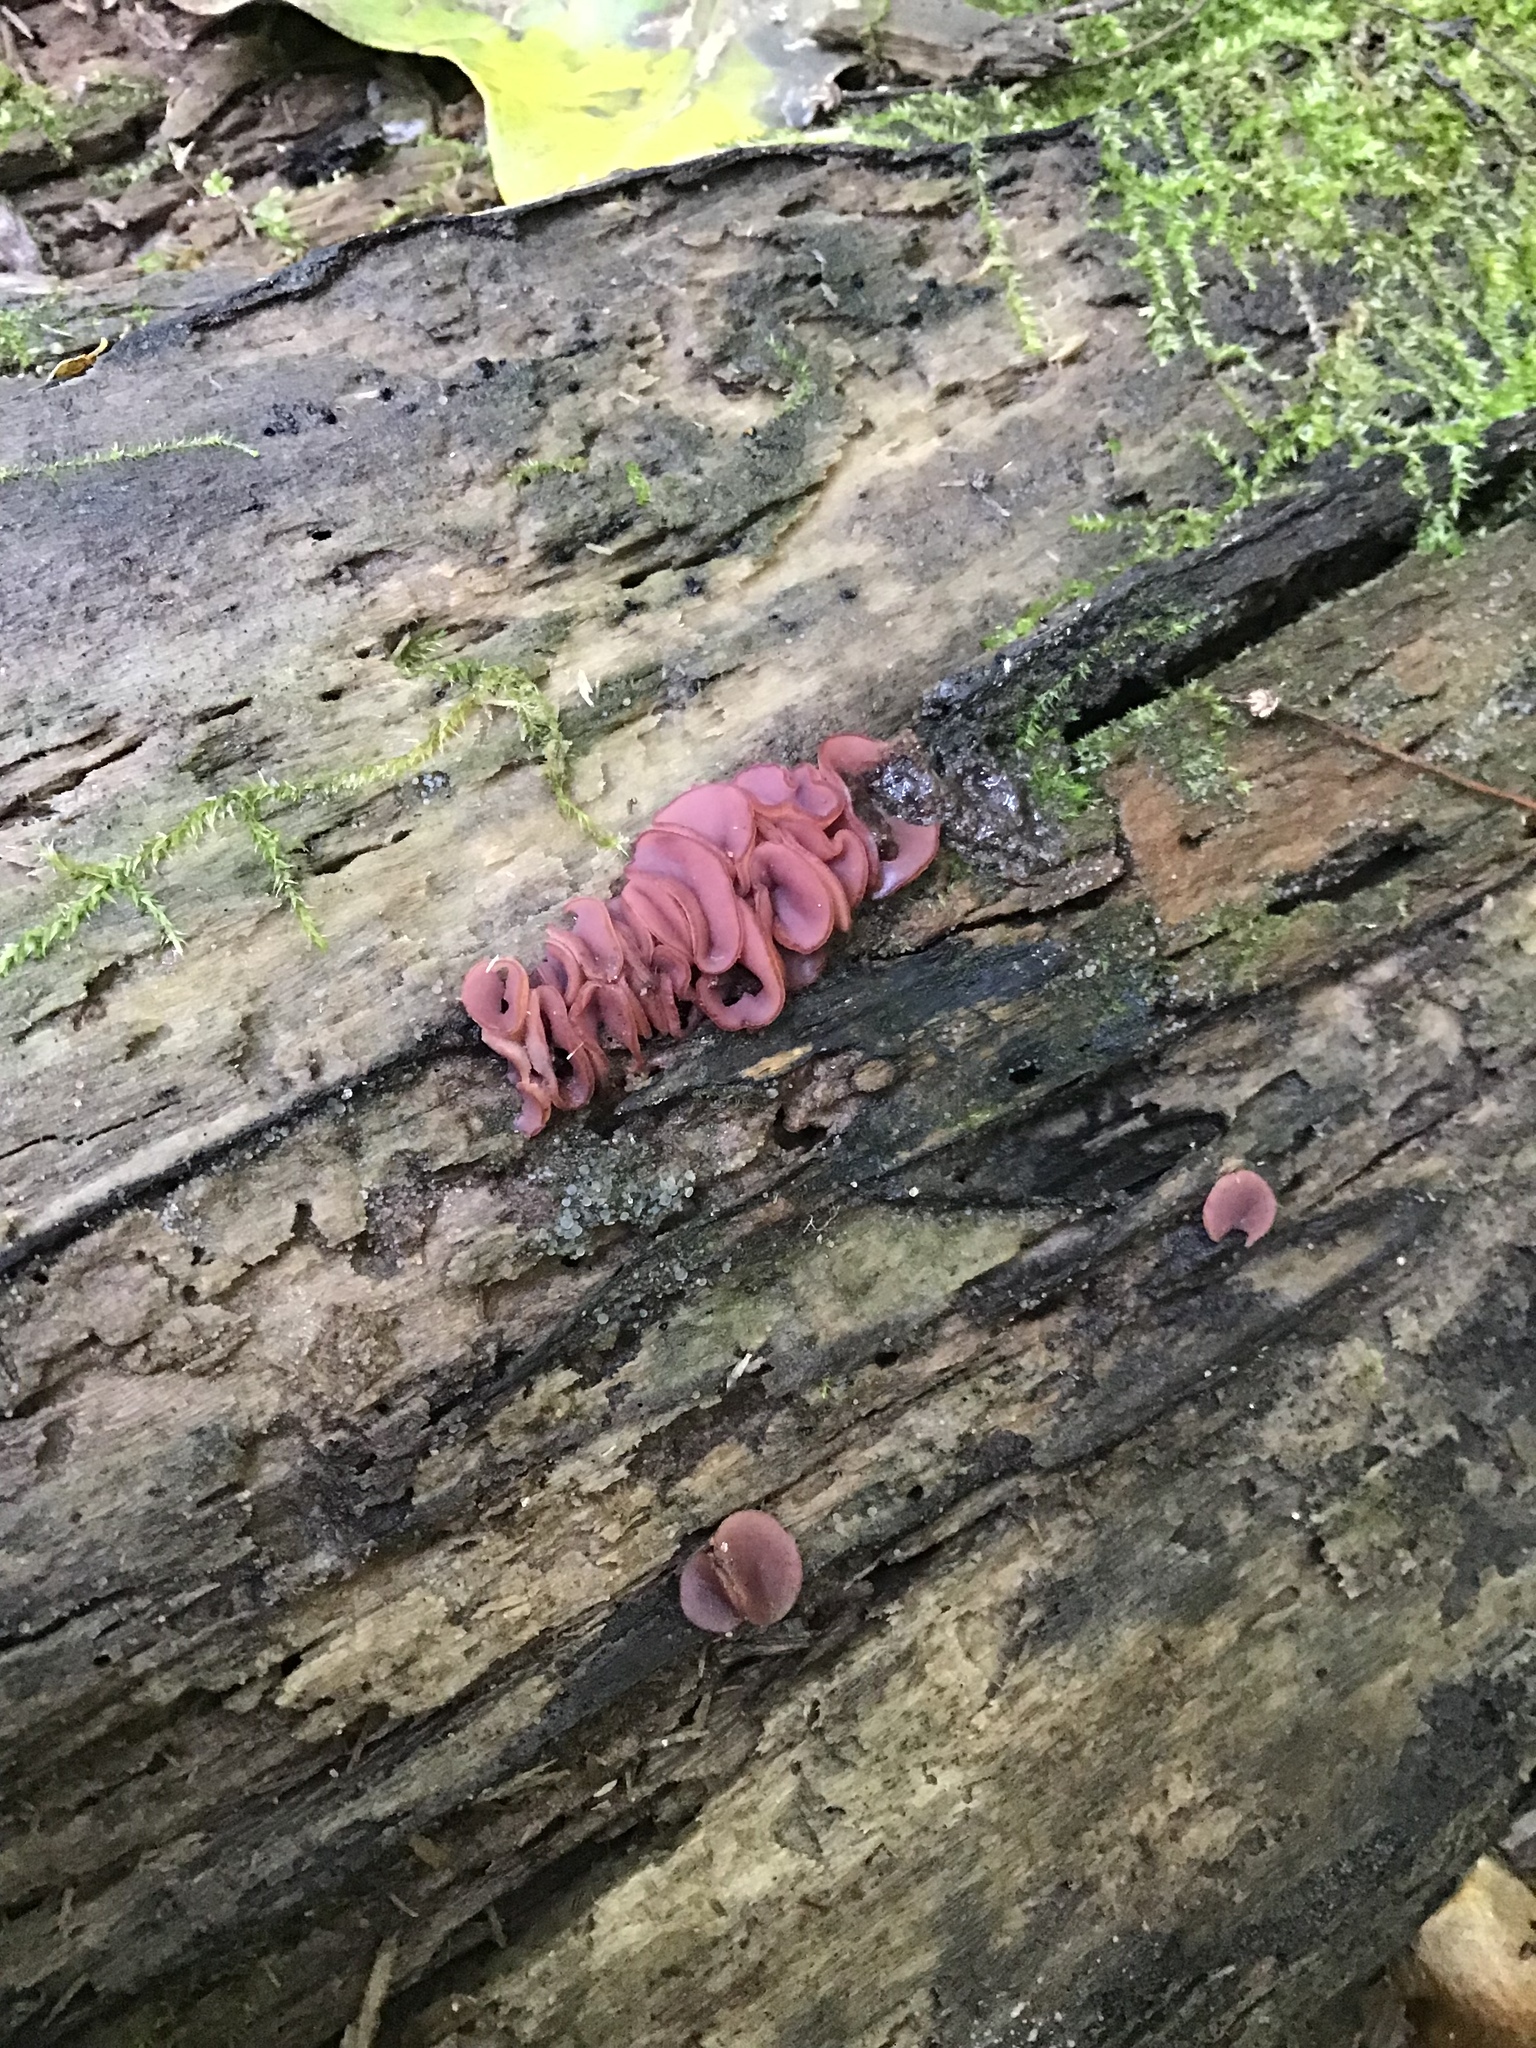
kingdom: Fungi
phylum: Ascomycota
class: Leotiomycetes
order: Helotiales
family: Gelatinodiscaceae
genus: Ascocoryne
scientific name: Ascocoryne sarcoides
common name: Purple jellydisc
